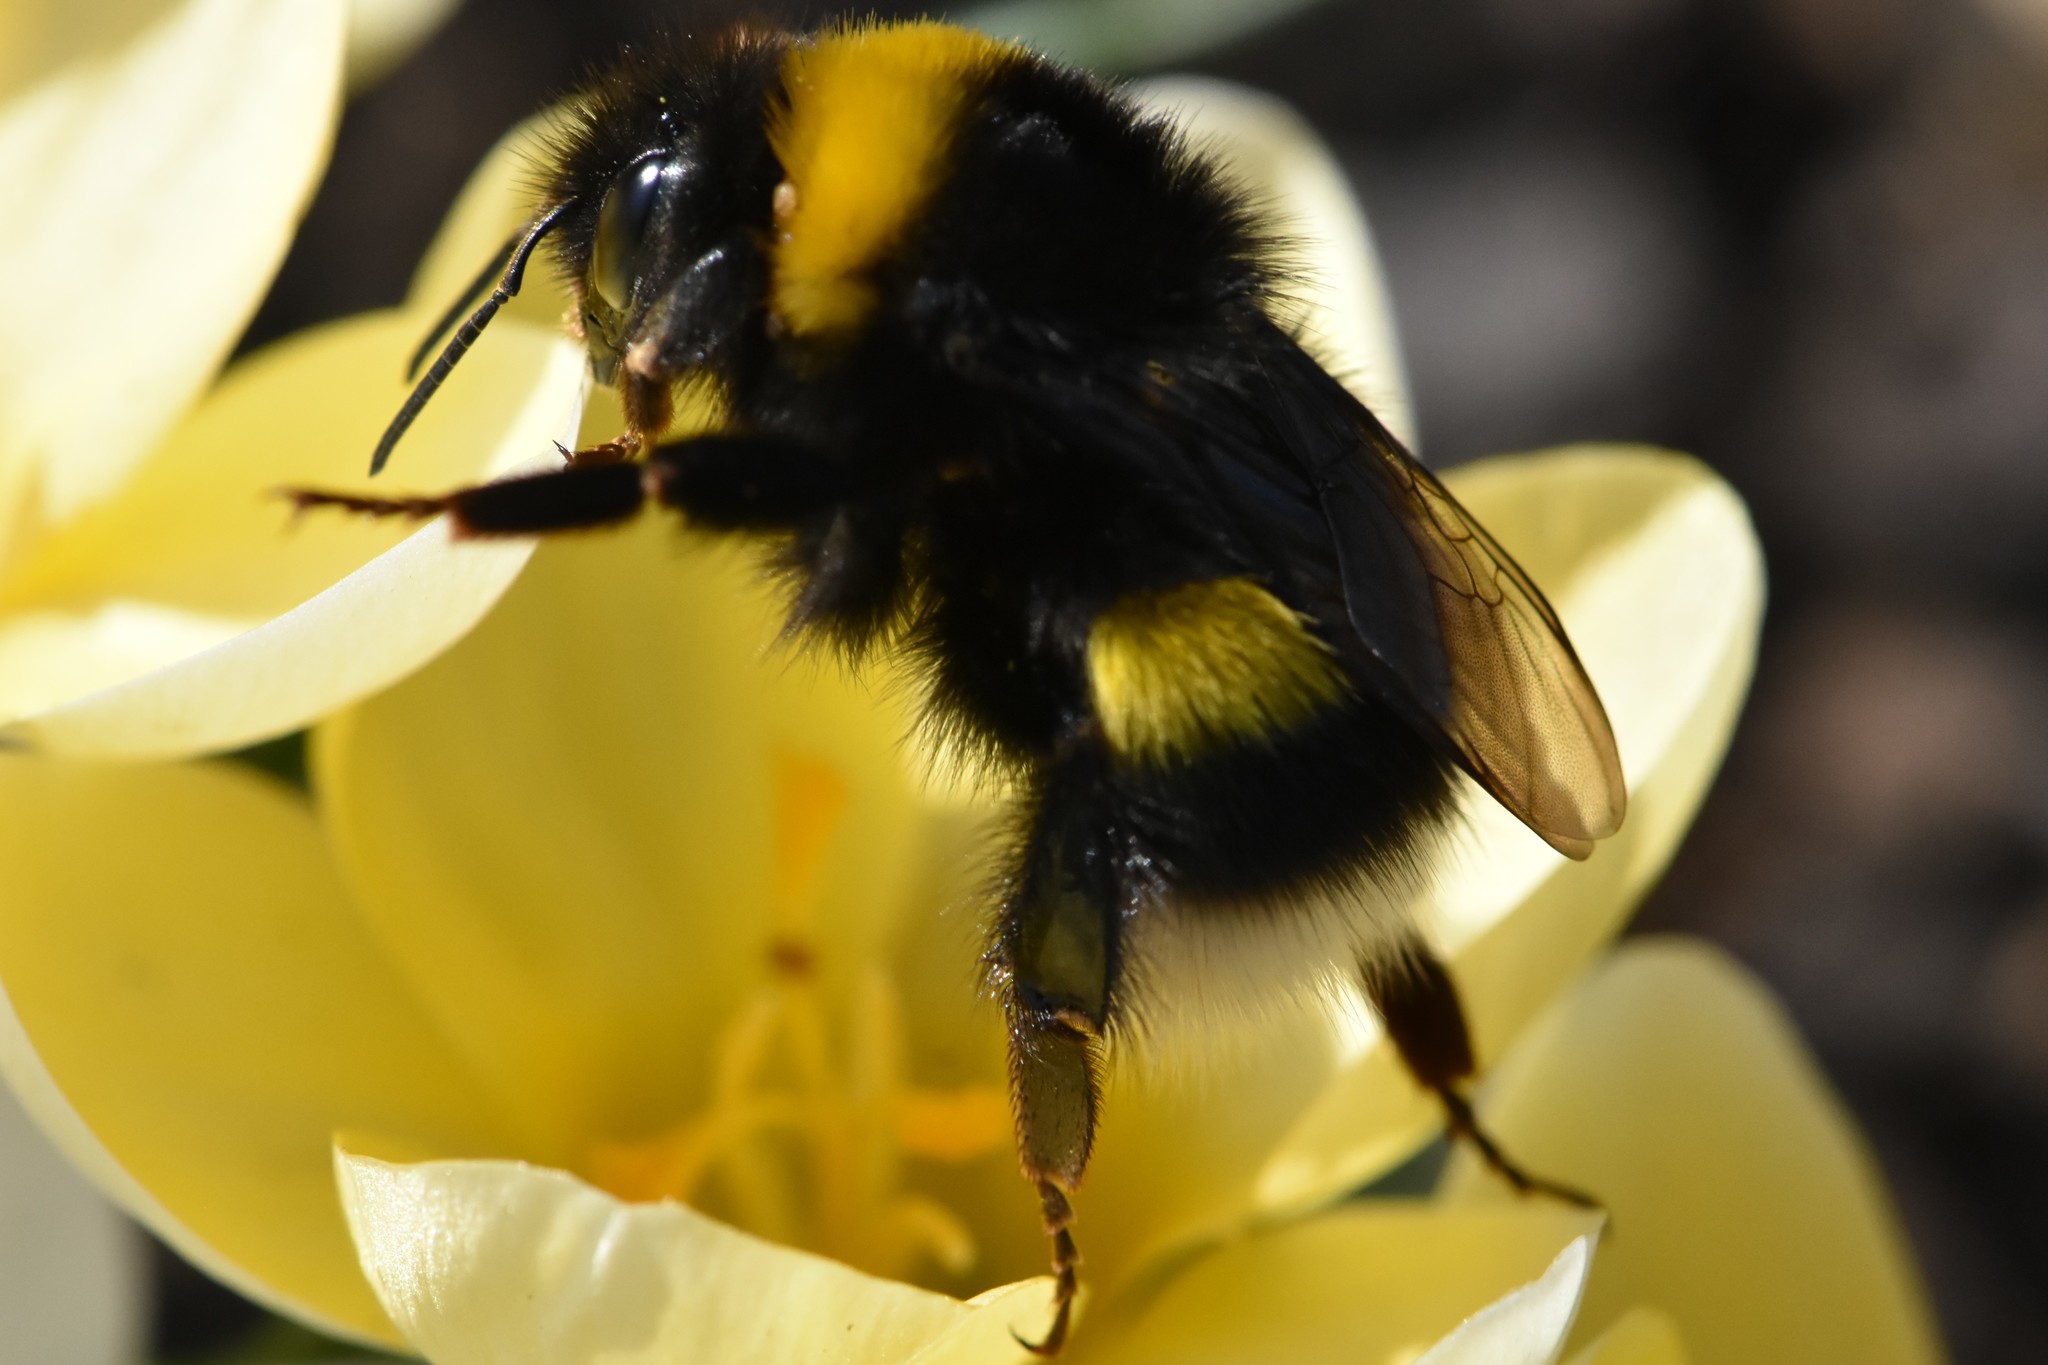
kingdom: Animalia
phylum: Arthropoda
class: Insecta
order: Hymenoptera
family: Apidae
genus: Bombus
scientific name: Bombus lucorum
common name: White-tailed bumblebee
